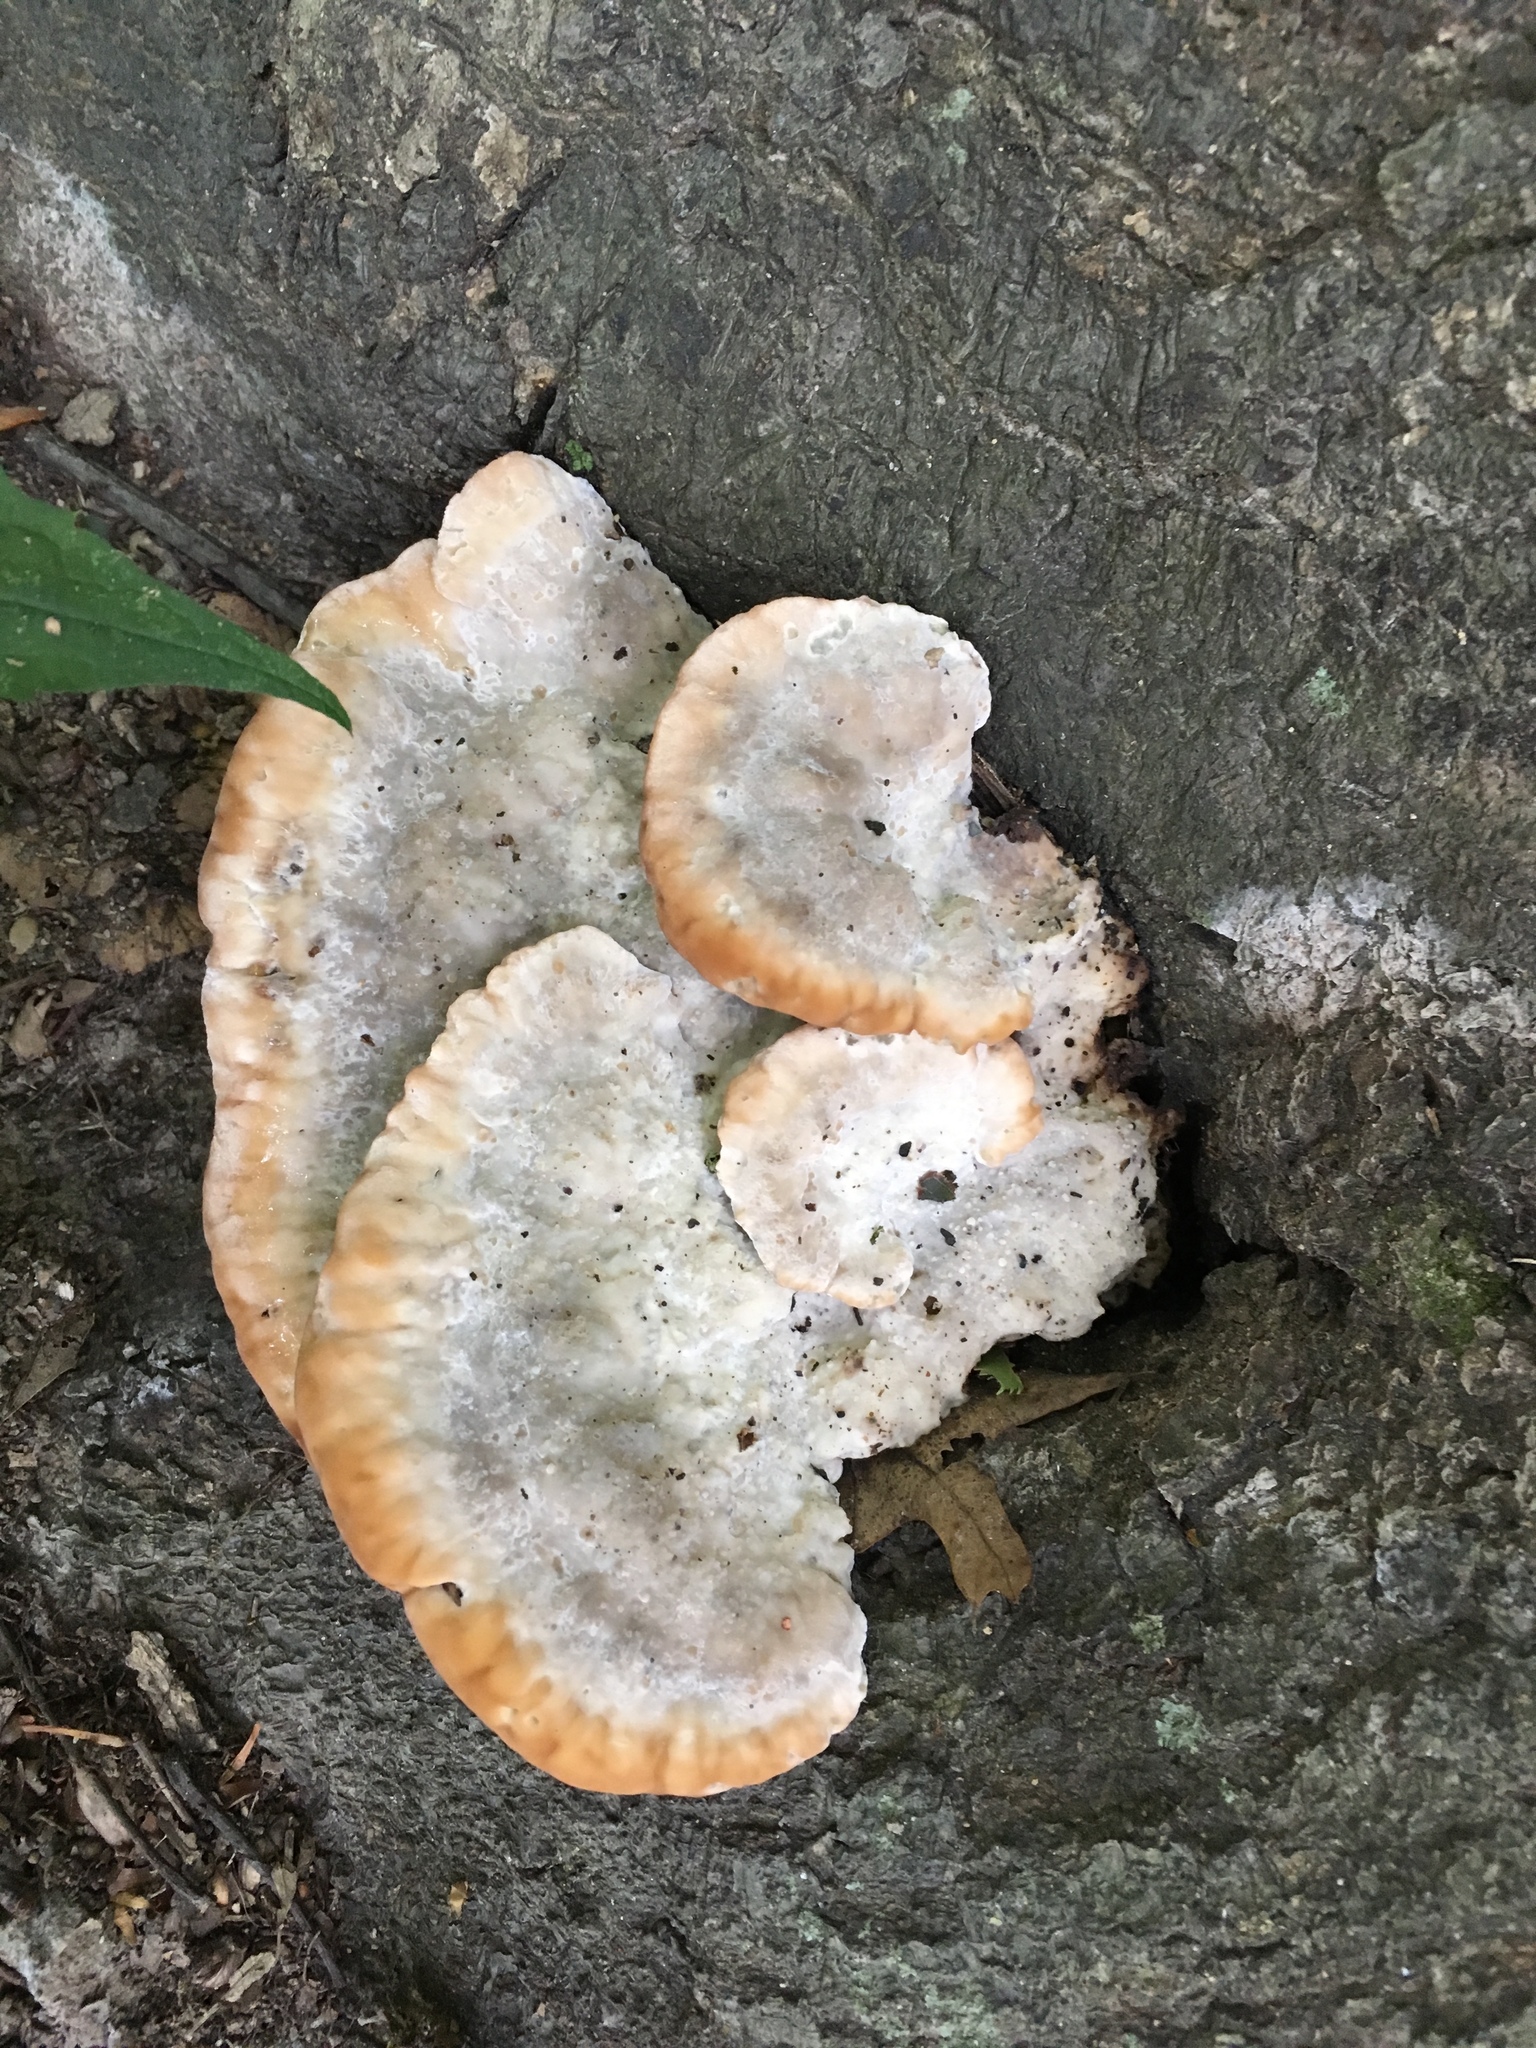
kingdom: Fungi
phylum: Basidiomycota
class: Agaricomycetes
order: Polyporales
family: Fomitopsidaceae
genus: Niveoporofomes
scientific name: Niveoporofomes spraguei
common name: Green cheese polypore
